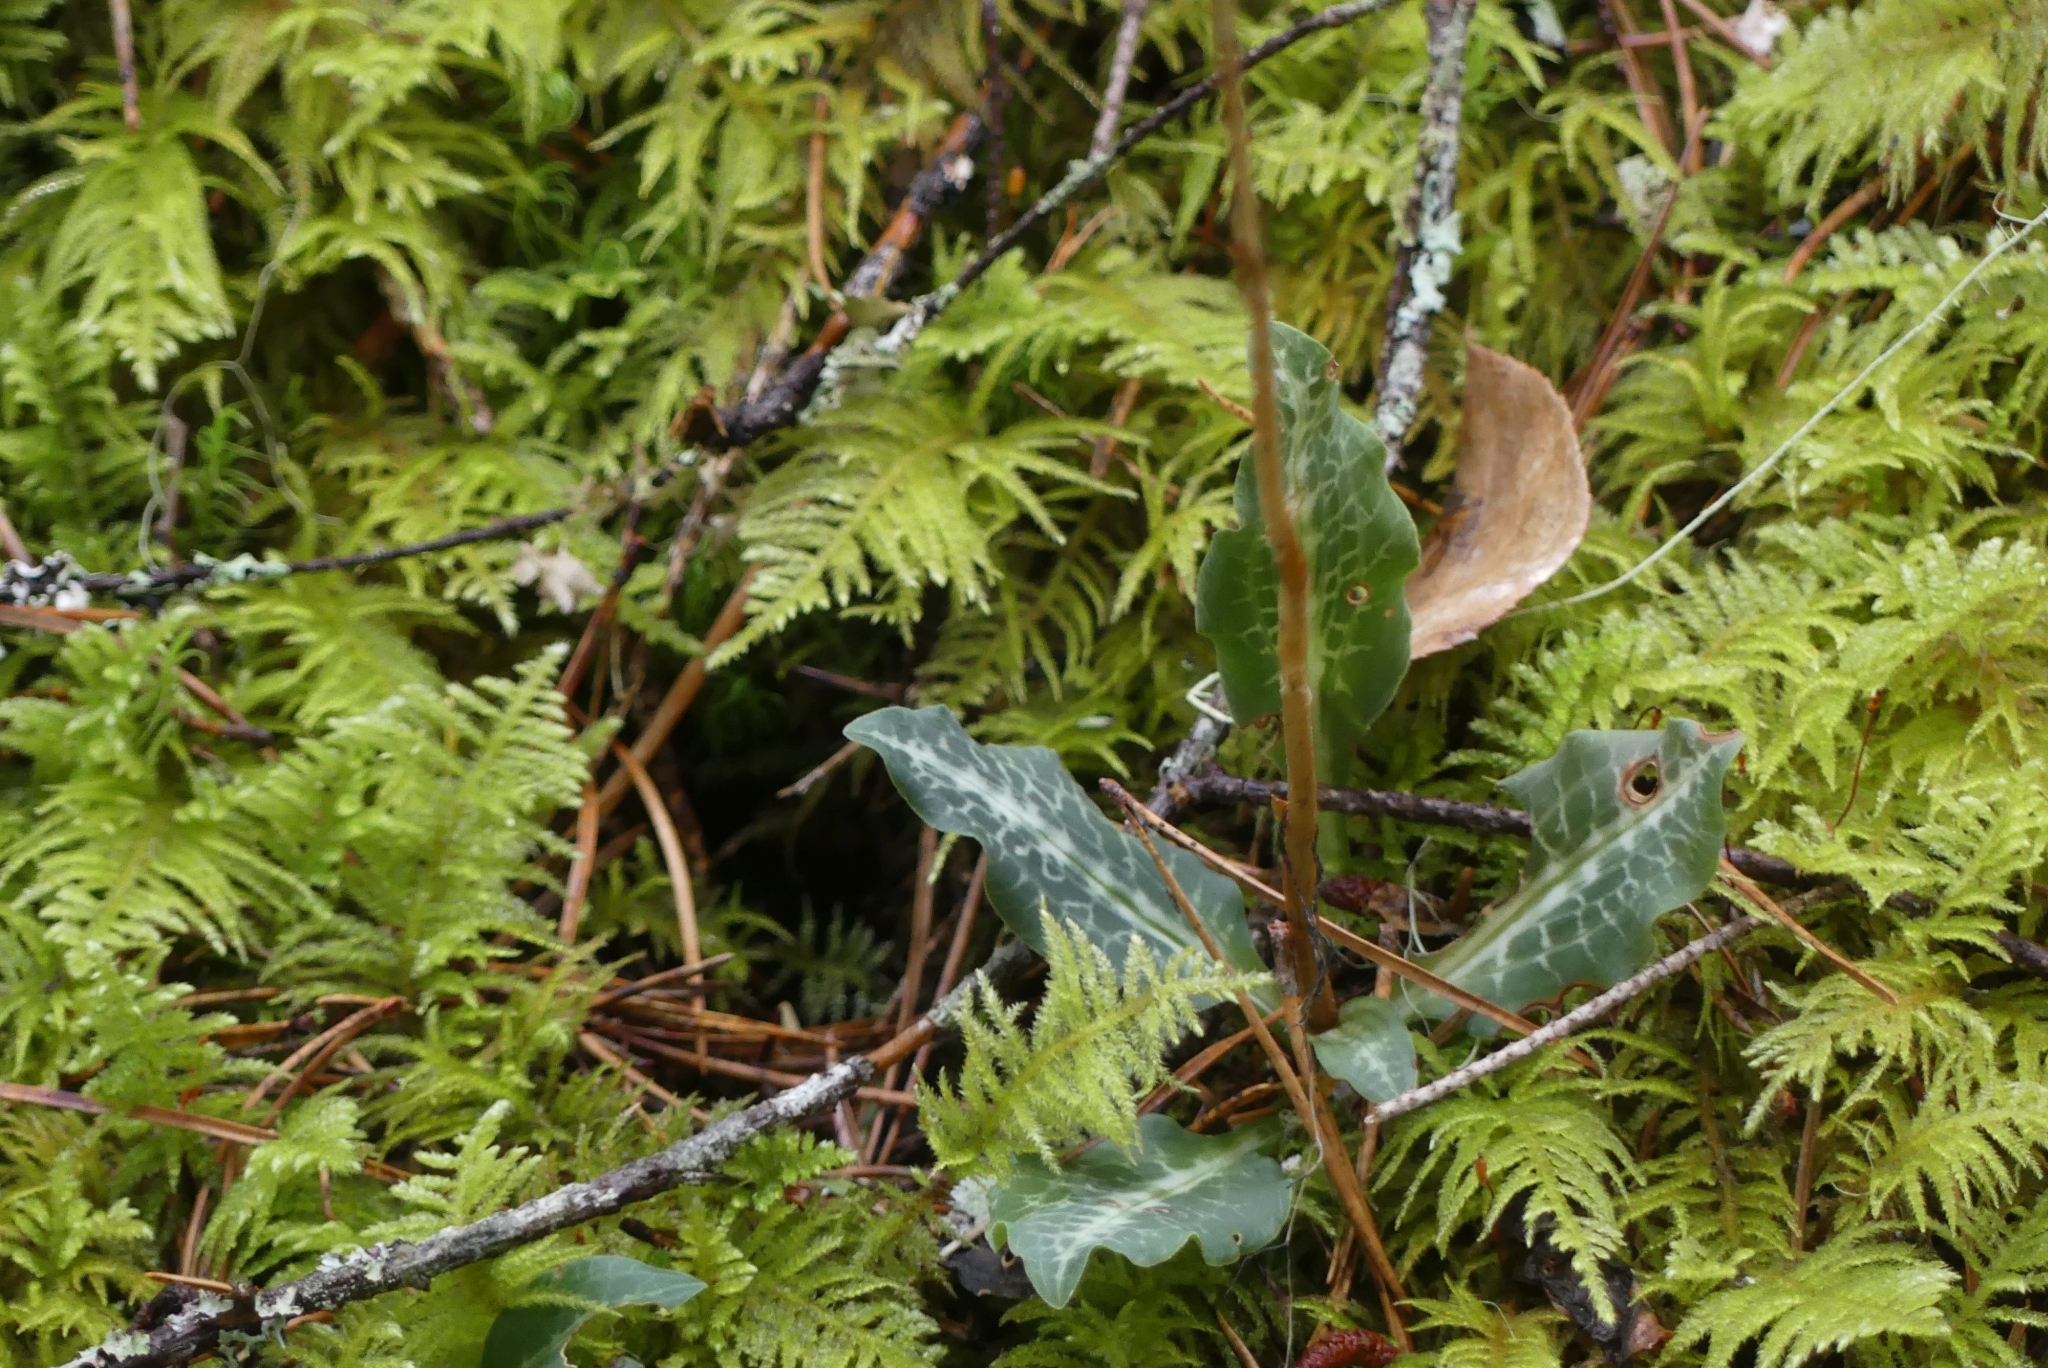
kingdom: Plantae
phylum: Tracheophyta
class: Liliopsida
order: Asparagales
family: Orchidaceae
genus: Goodyera
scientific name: Goodyera oblongifolia
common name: Giant rattlesnake-plantain
